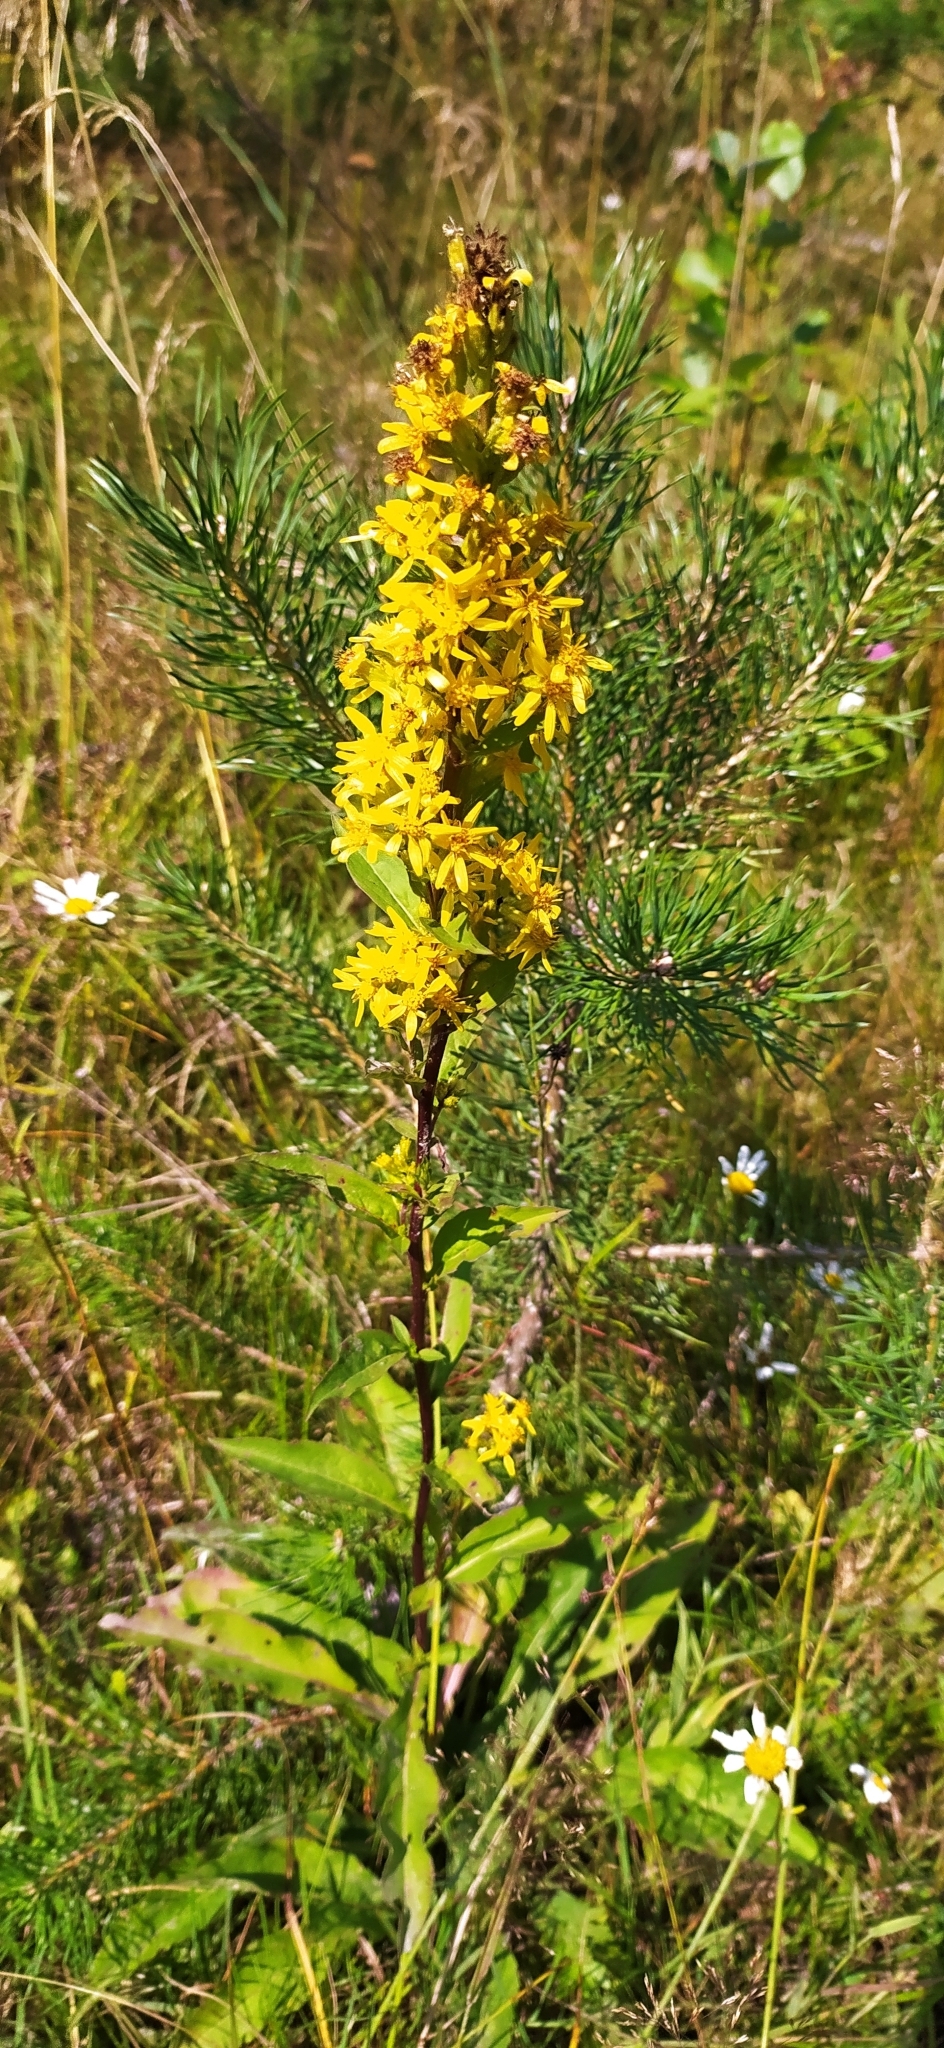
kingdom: Plantae
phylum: Tracheophyta
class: Magnoliopsida
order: Asterales
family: Asteraceae
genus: Solidago
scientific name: Solidago virgaurea
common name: Goldenrod
